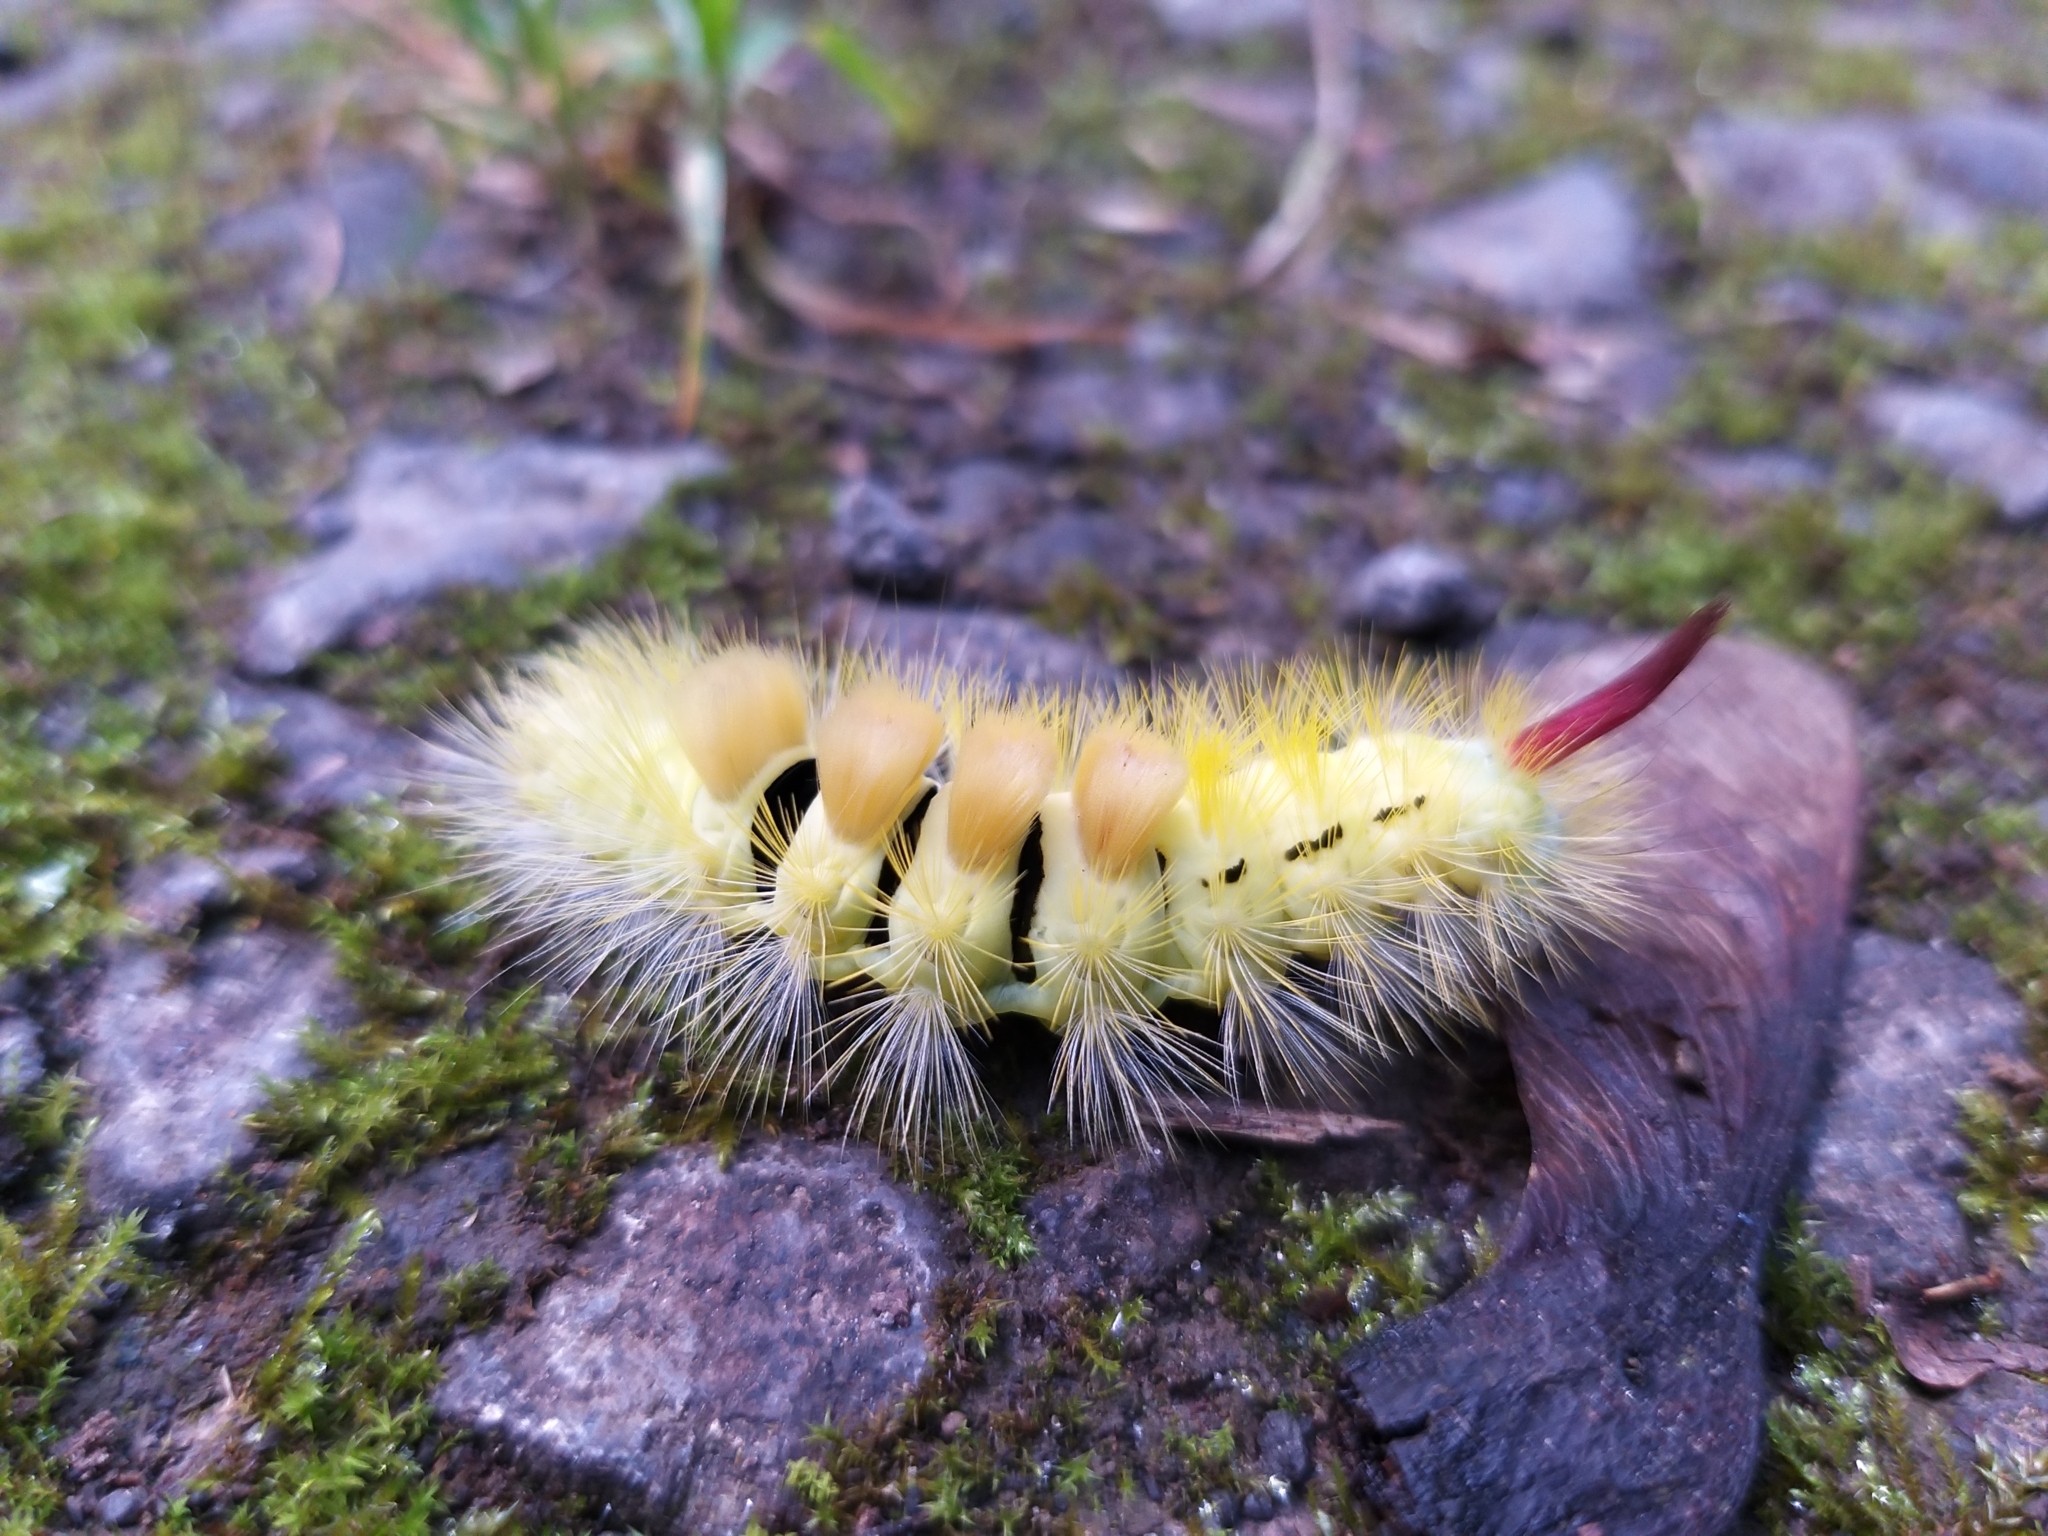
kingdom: Animalia
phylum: Arthropoda
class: Insecta
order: Lepidoptera
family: Erebidae
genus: Calliteara
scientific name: Calliteara pudibunda
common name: Pale tussock
